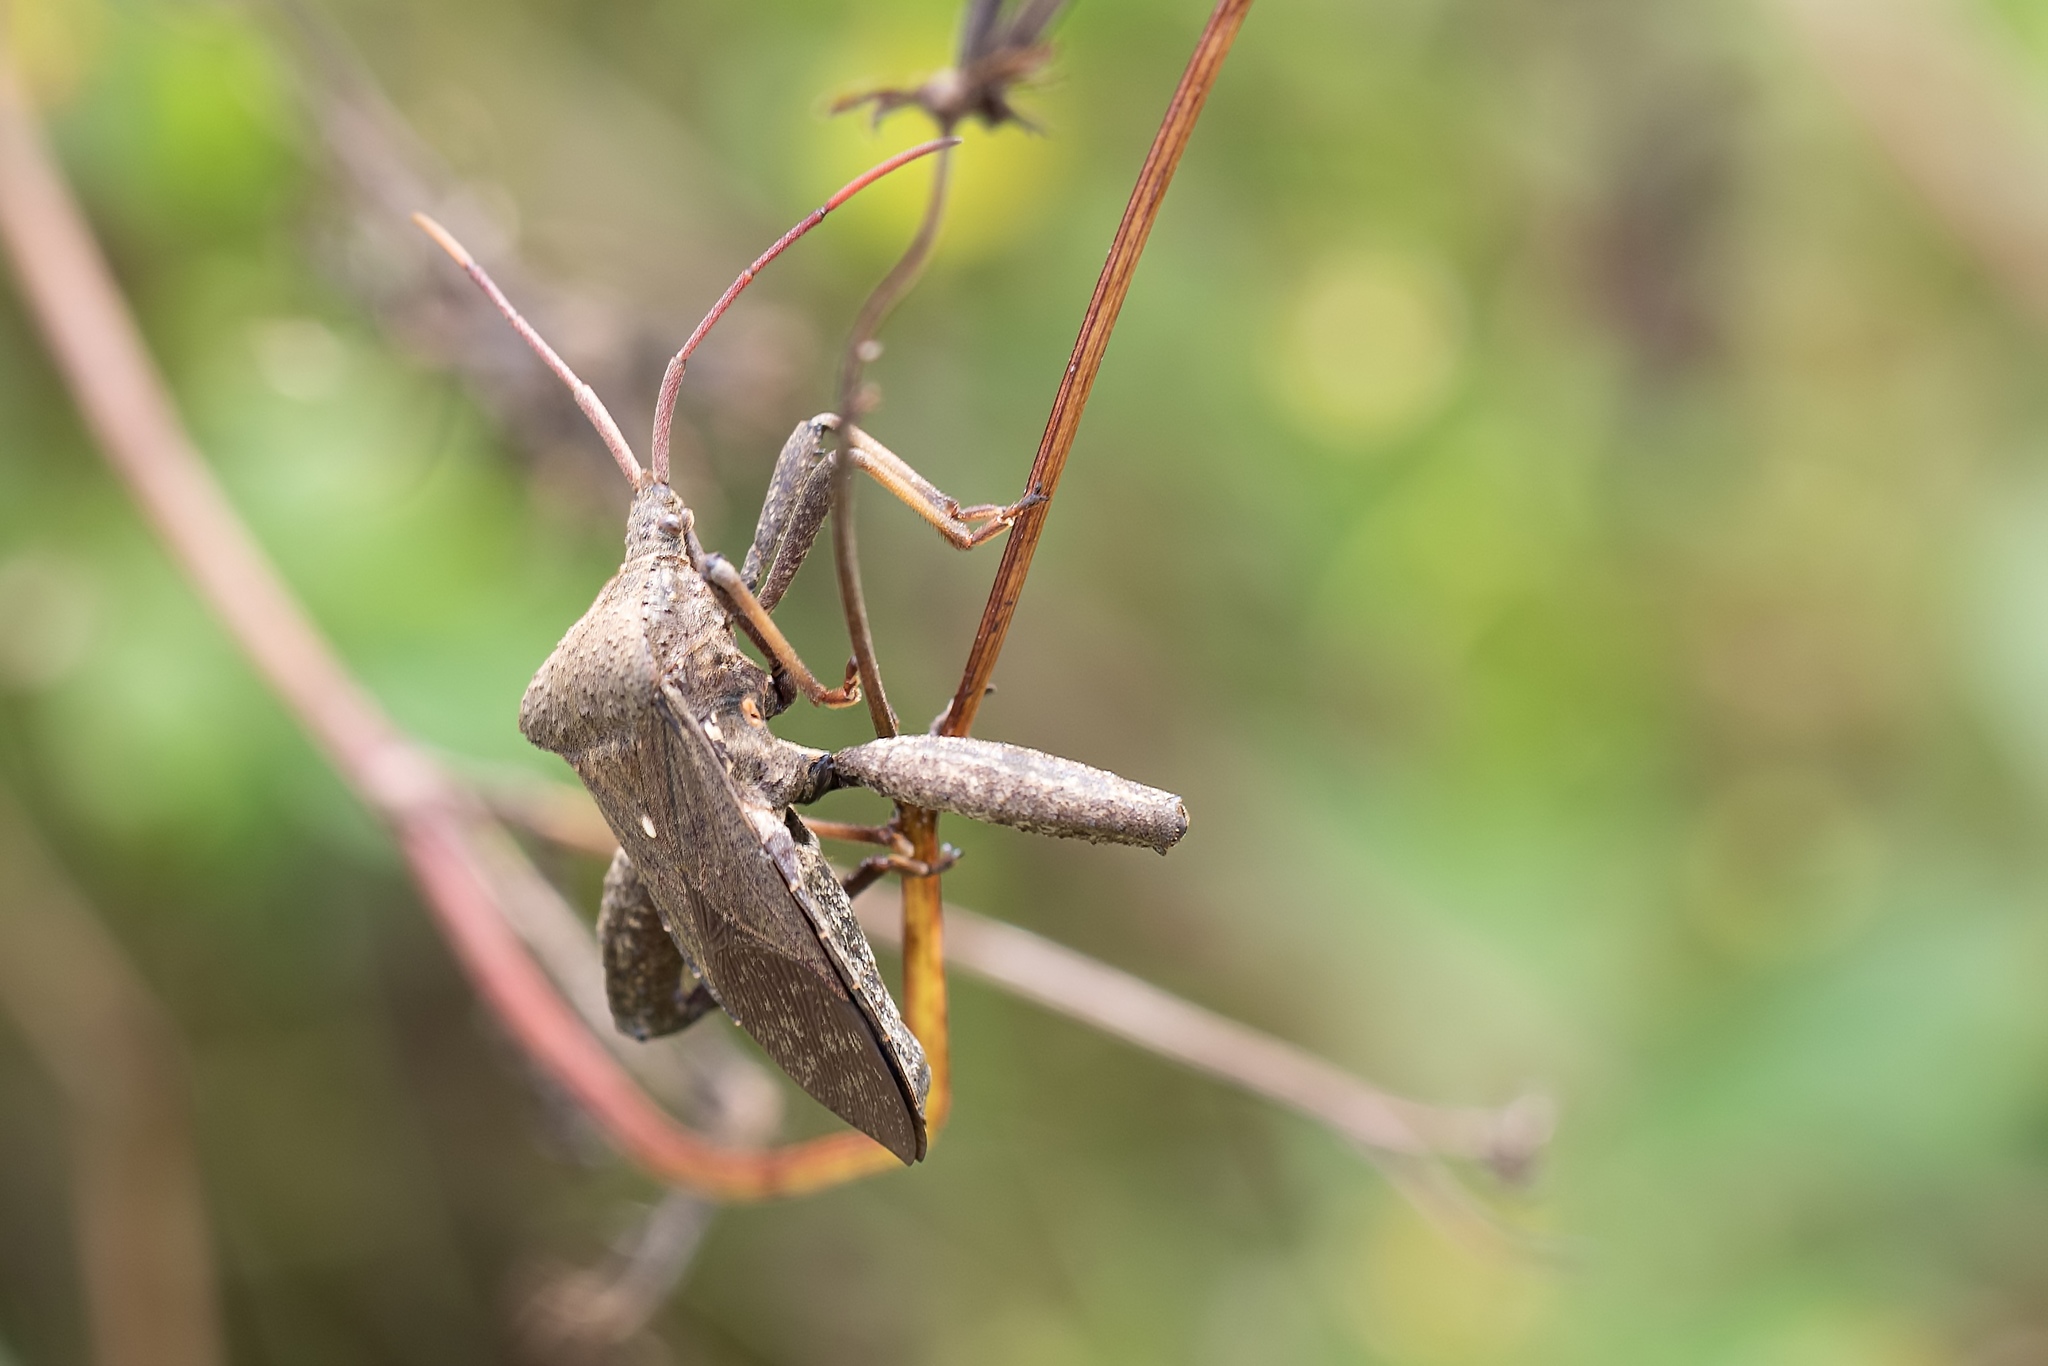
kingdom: Animalia
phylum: Arthropoda
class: Insecta
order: Hemiptera
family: Coreidae
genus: Acanthocephala
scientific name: Acanthocephala femorata
